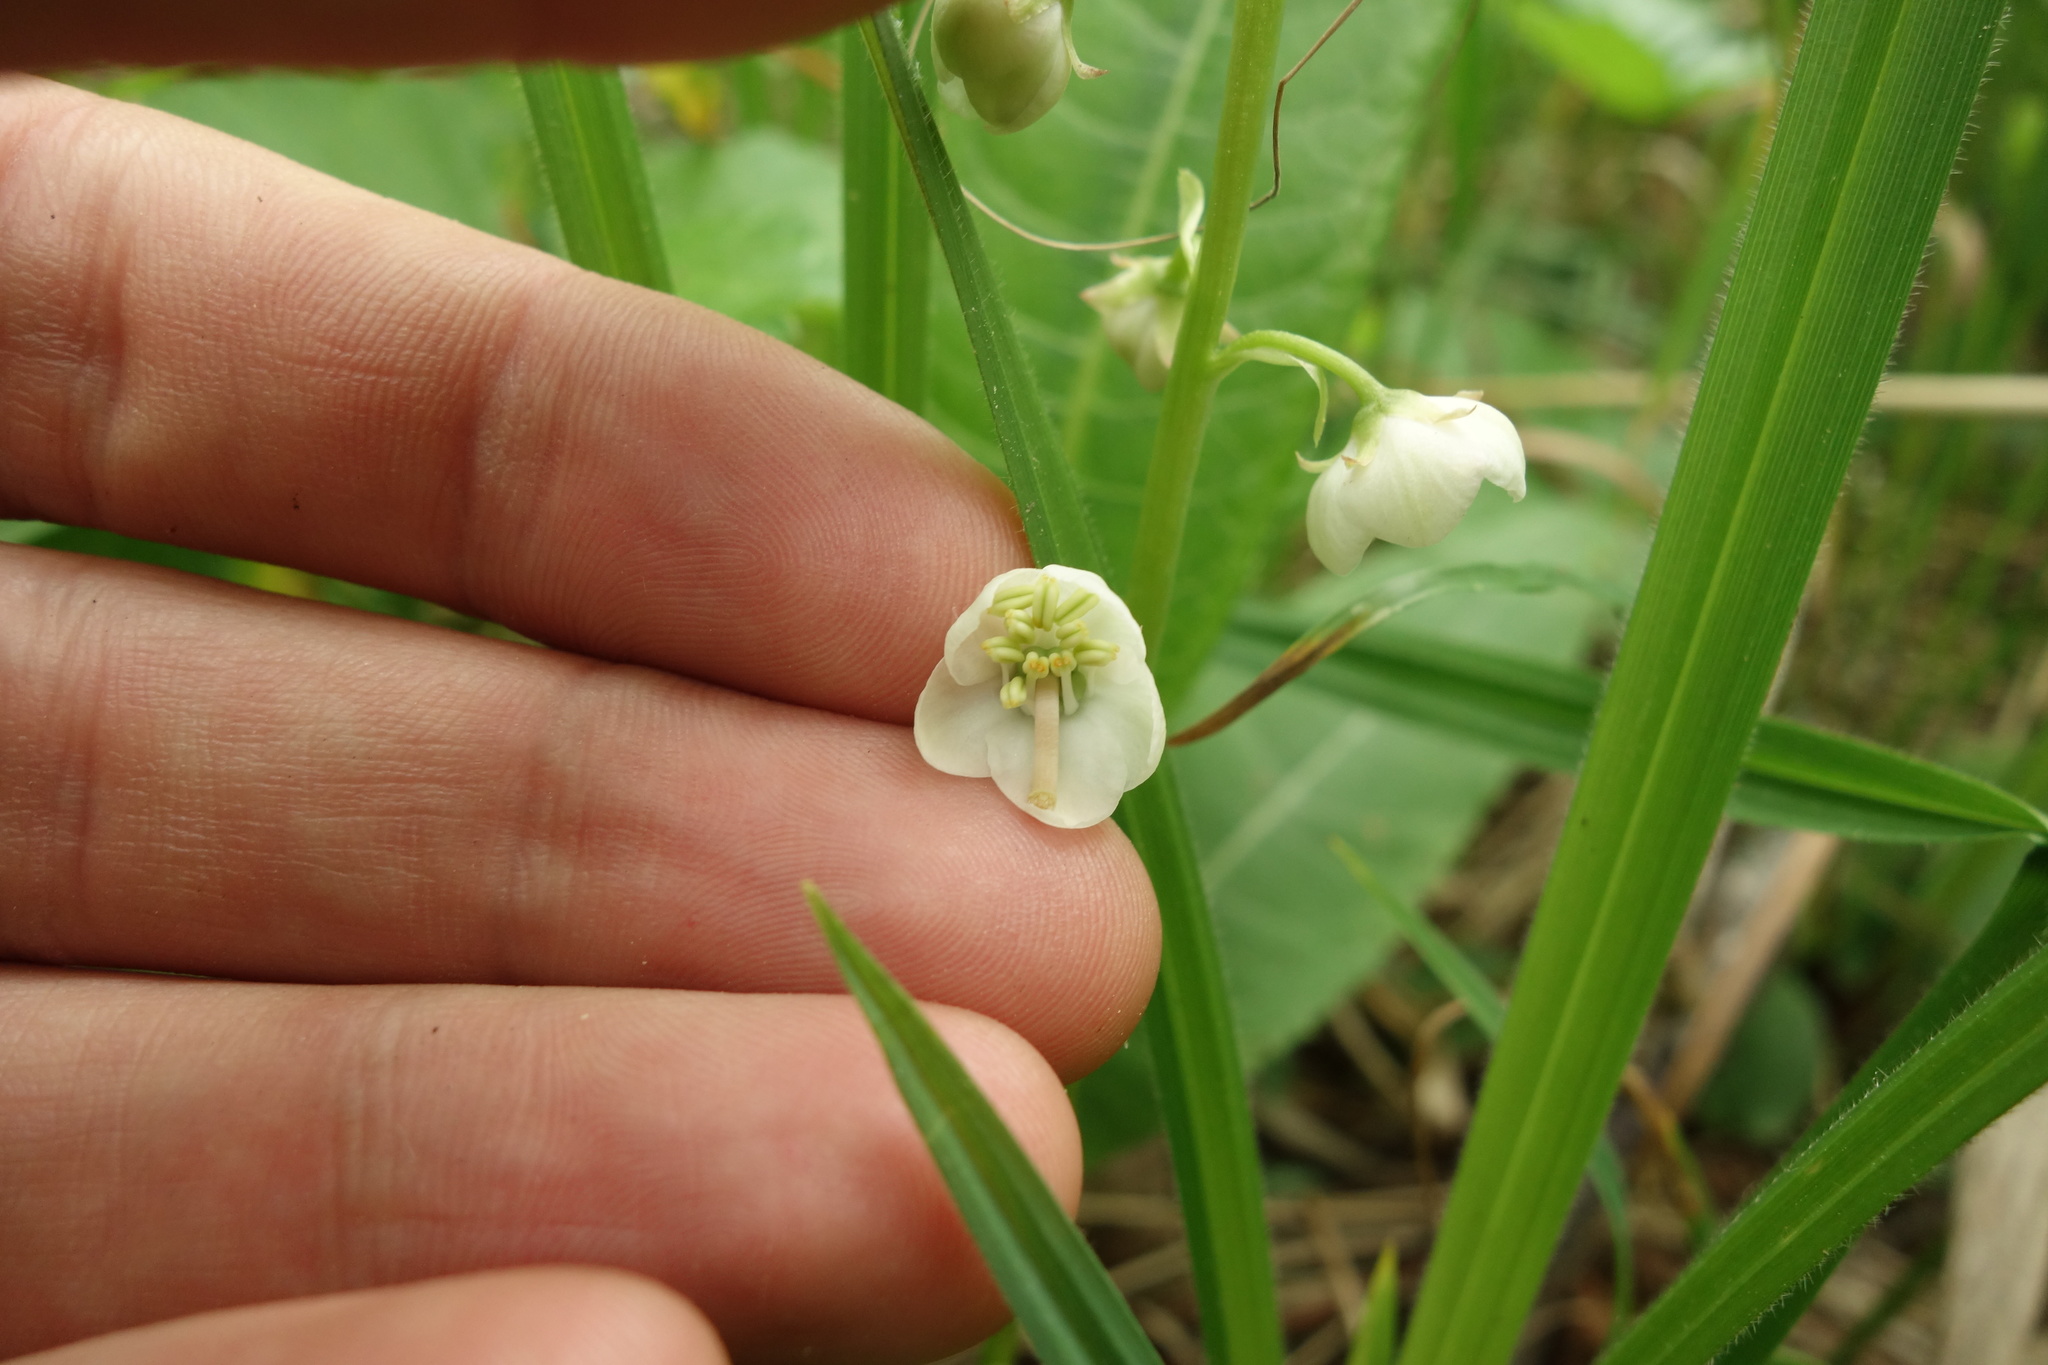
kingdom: Plantae
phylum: Tracheophyta
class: Magnoliopsida
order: Ericales
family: Ericaceae
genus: Pyrola
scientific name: Pyrola rotundifolia
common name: Round-leaved wintergreen
